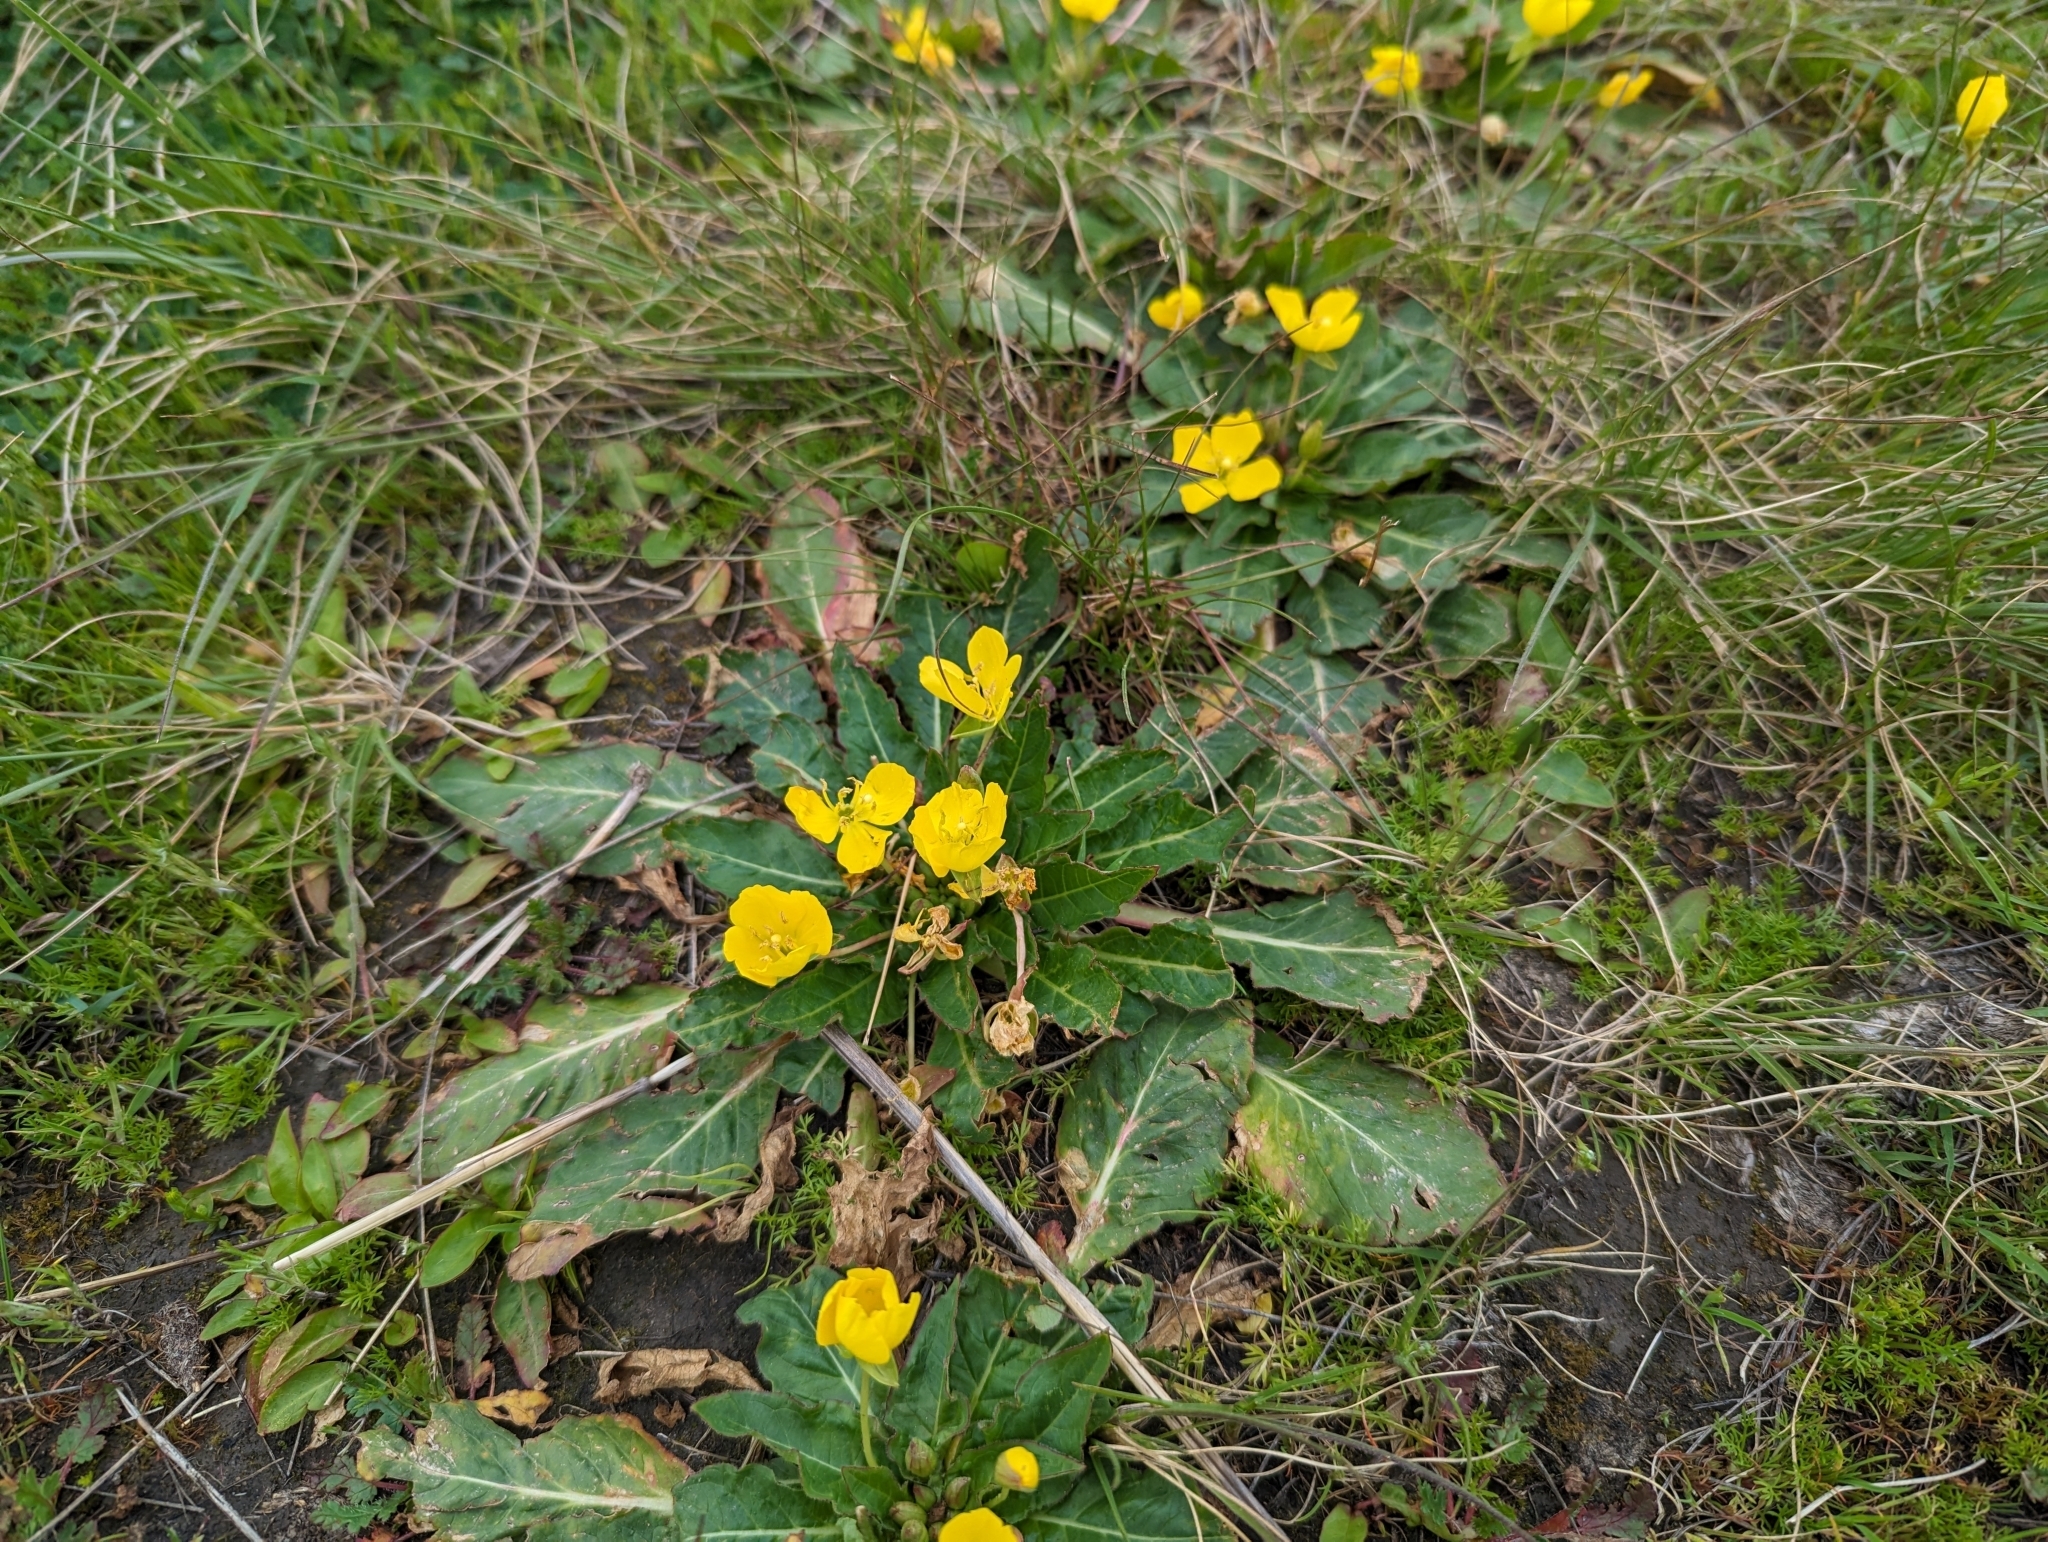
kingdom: Plantae
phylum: Tracheophyta
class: Magnoliopsida
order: Myrtales
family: Onagraceae
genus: Taraxia
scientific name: Taraxia ovata
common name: Goldeneggs
